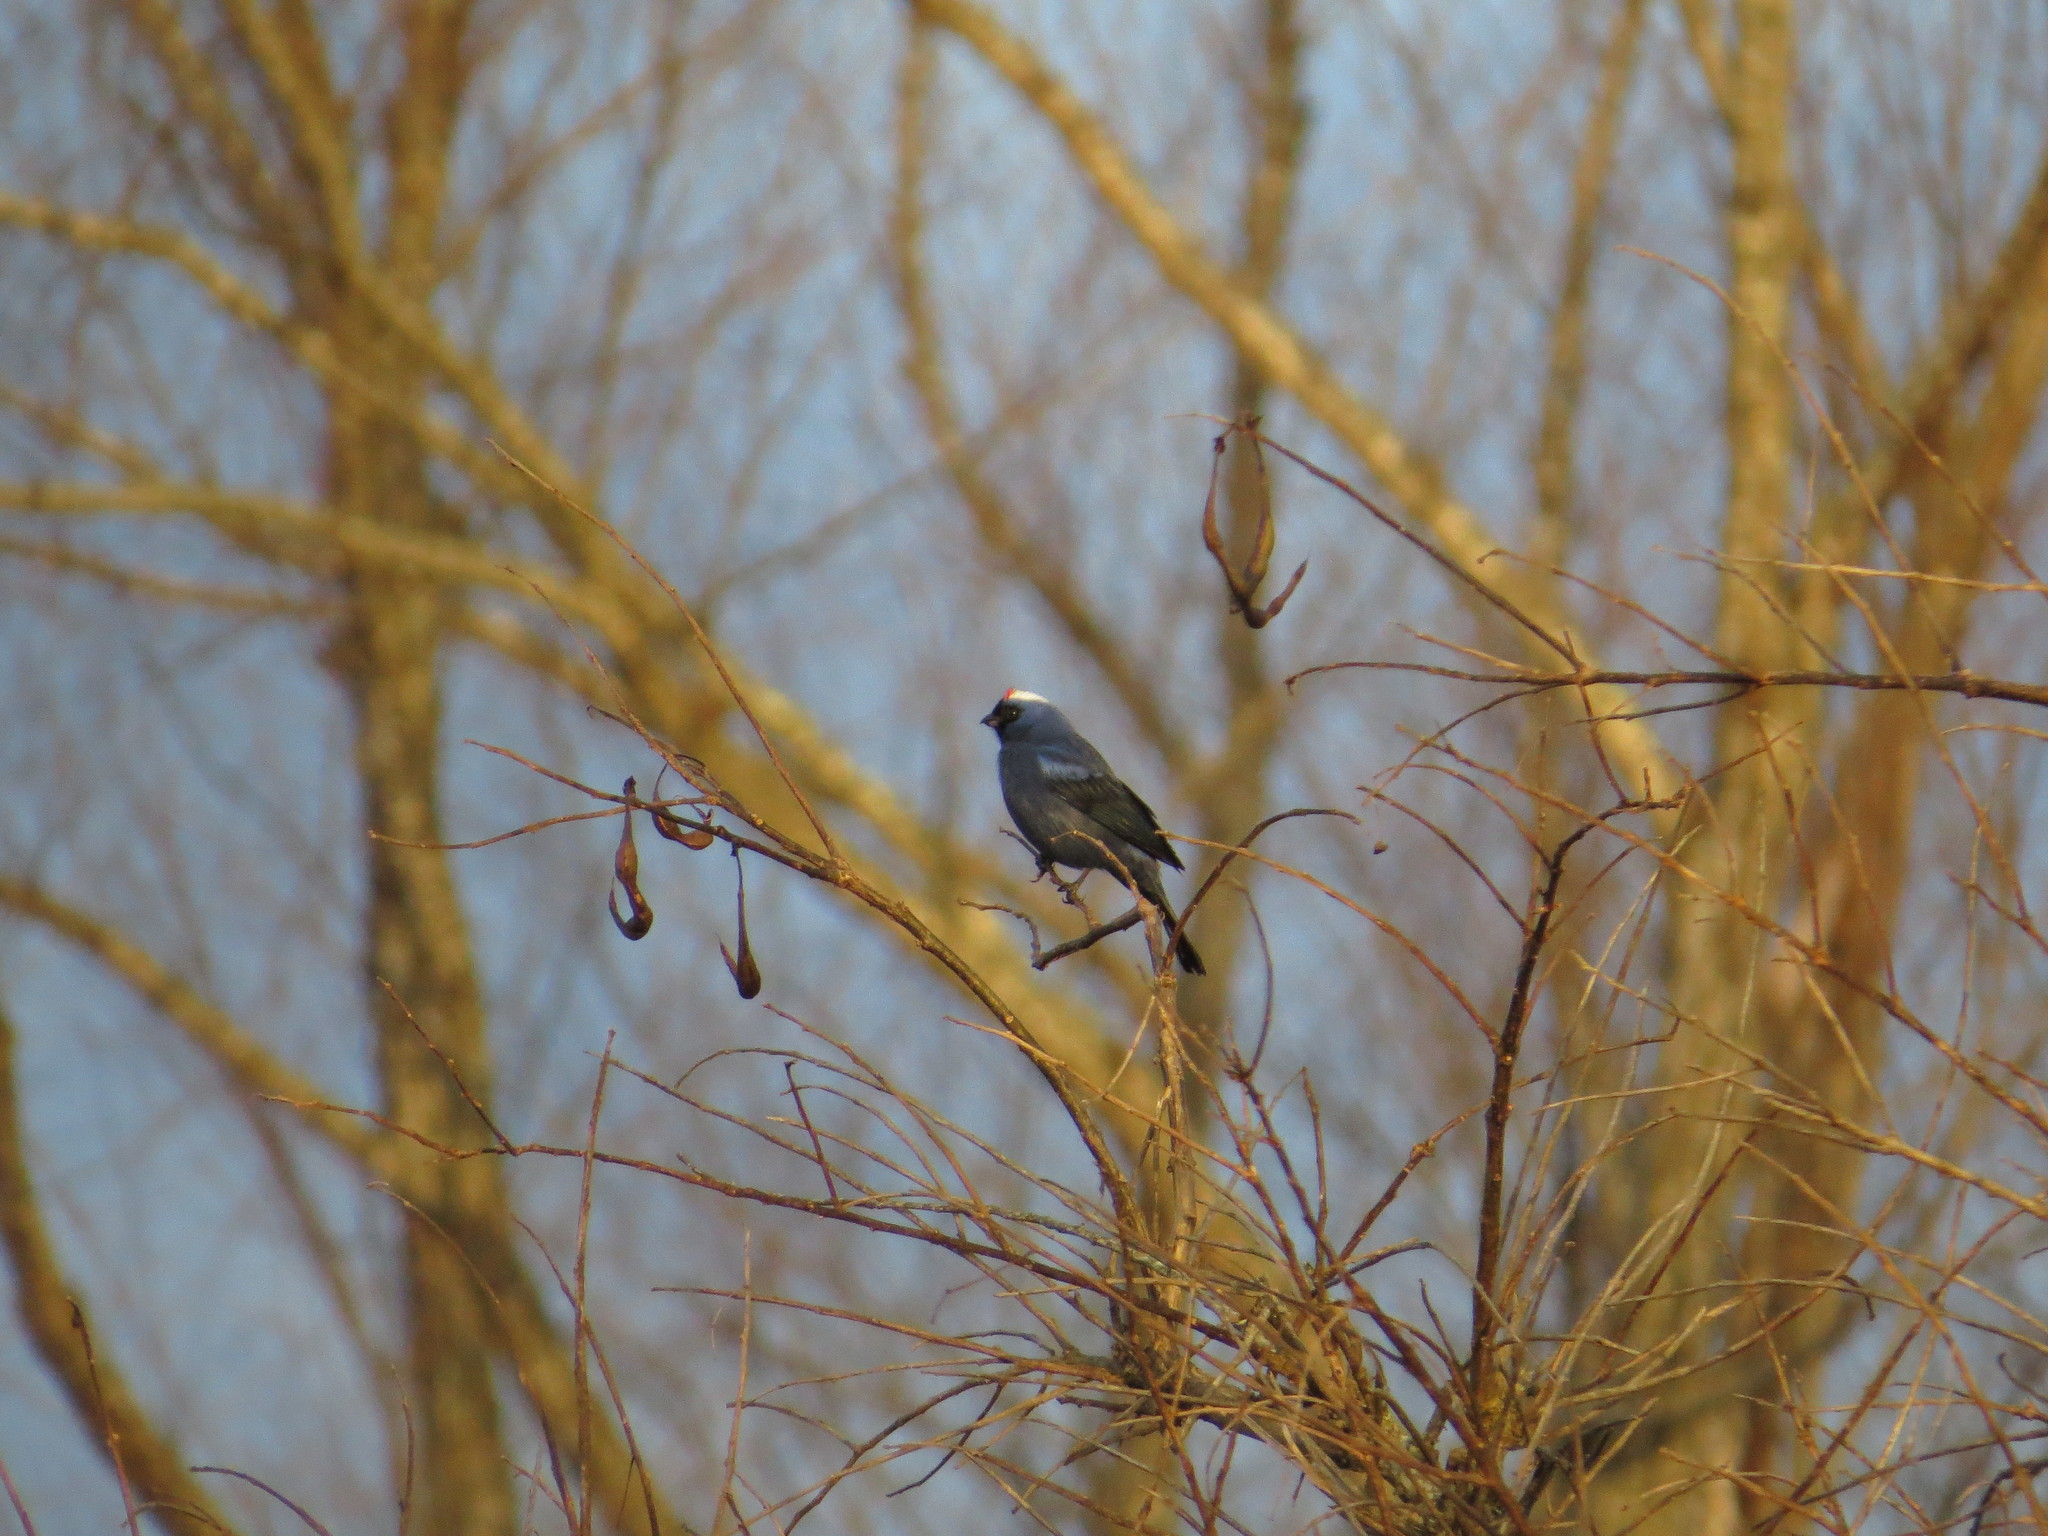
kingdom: Animalia
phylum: Chordata
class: Aves
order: Passeriformes
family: Thraupidae
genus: Stephanophorus
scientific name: Stephanophorus diadematus
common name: Diademed tanager
